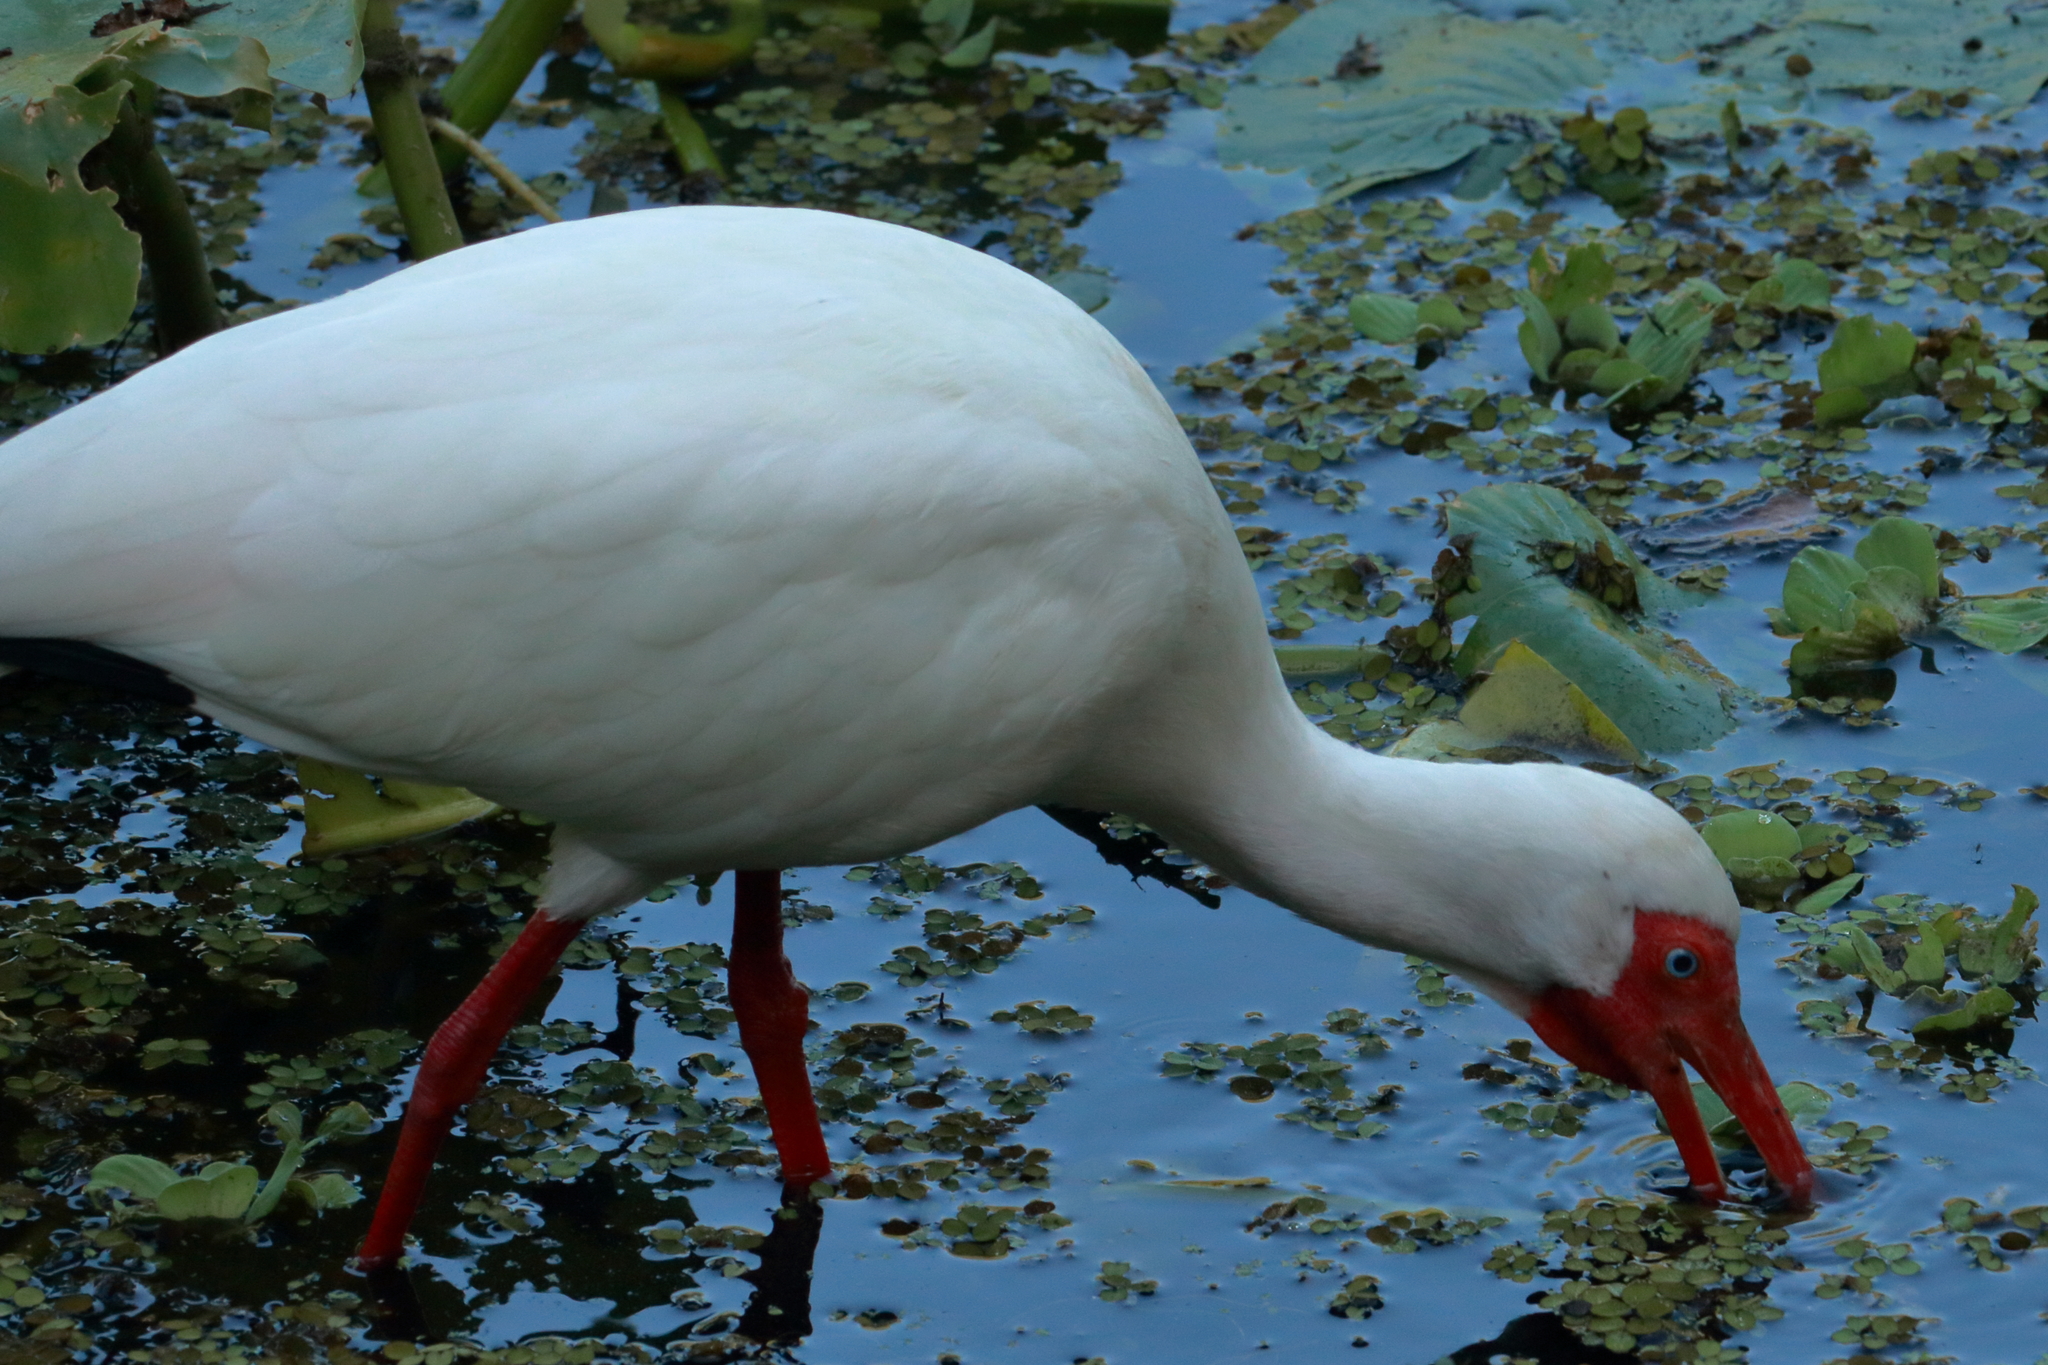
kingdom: Animalia
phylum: Chordata
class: Aves
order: Pelecaniformes
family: Threskiornithidae
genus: Eudocimus
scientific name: Eudocimus albus
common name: White ibis
